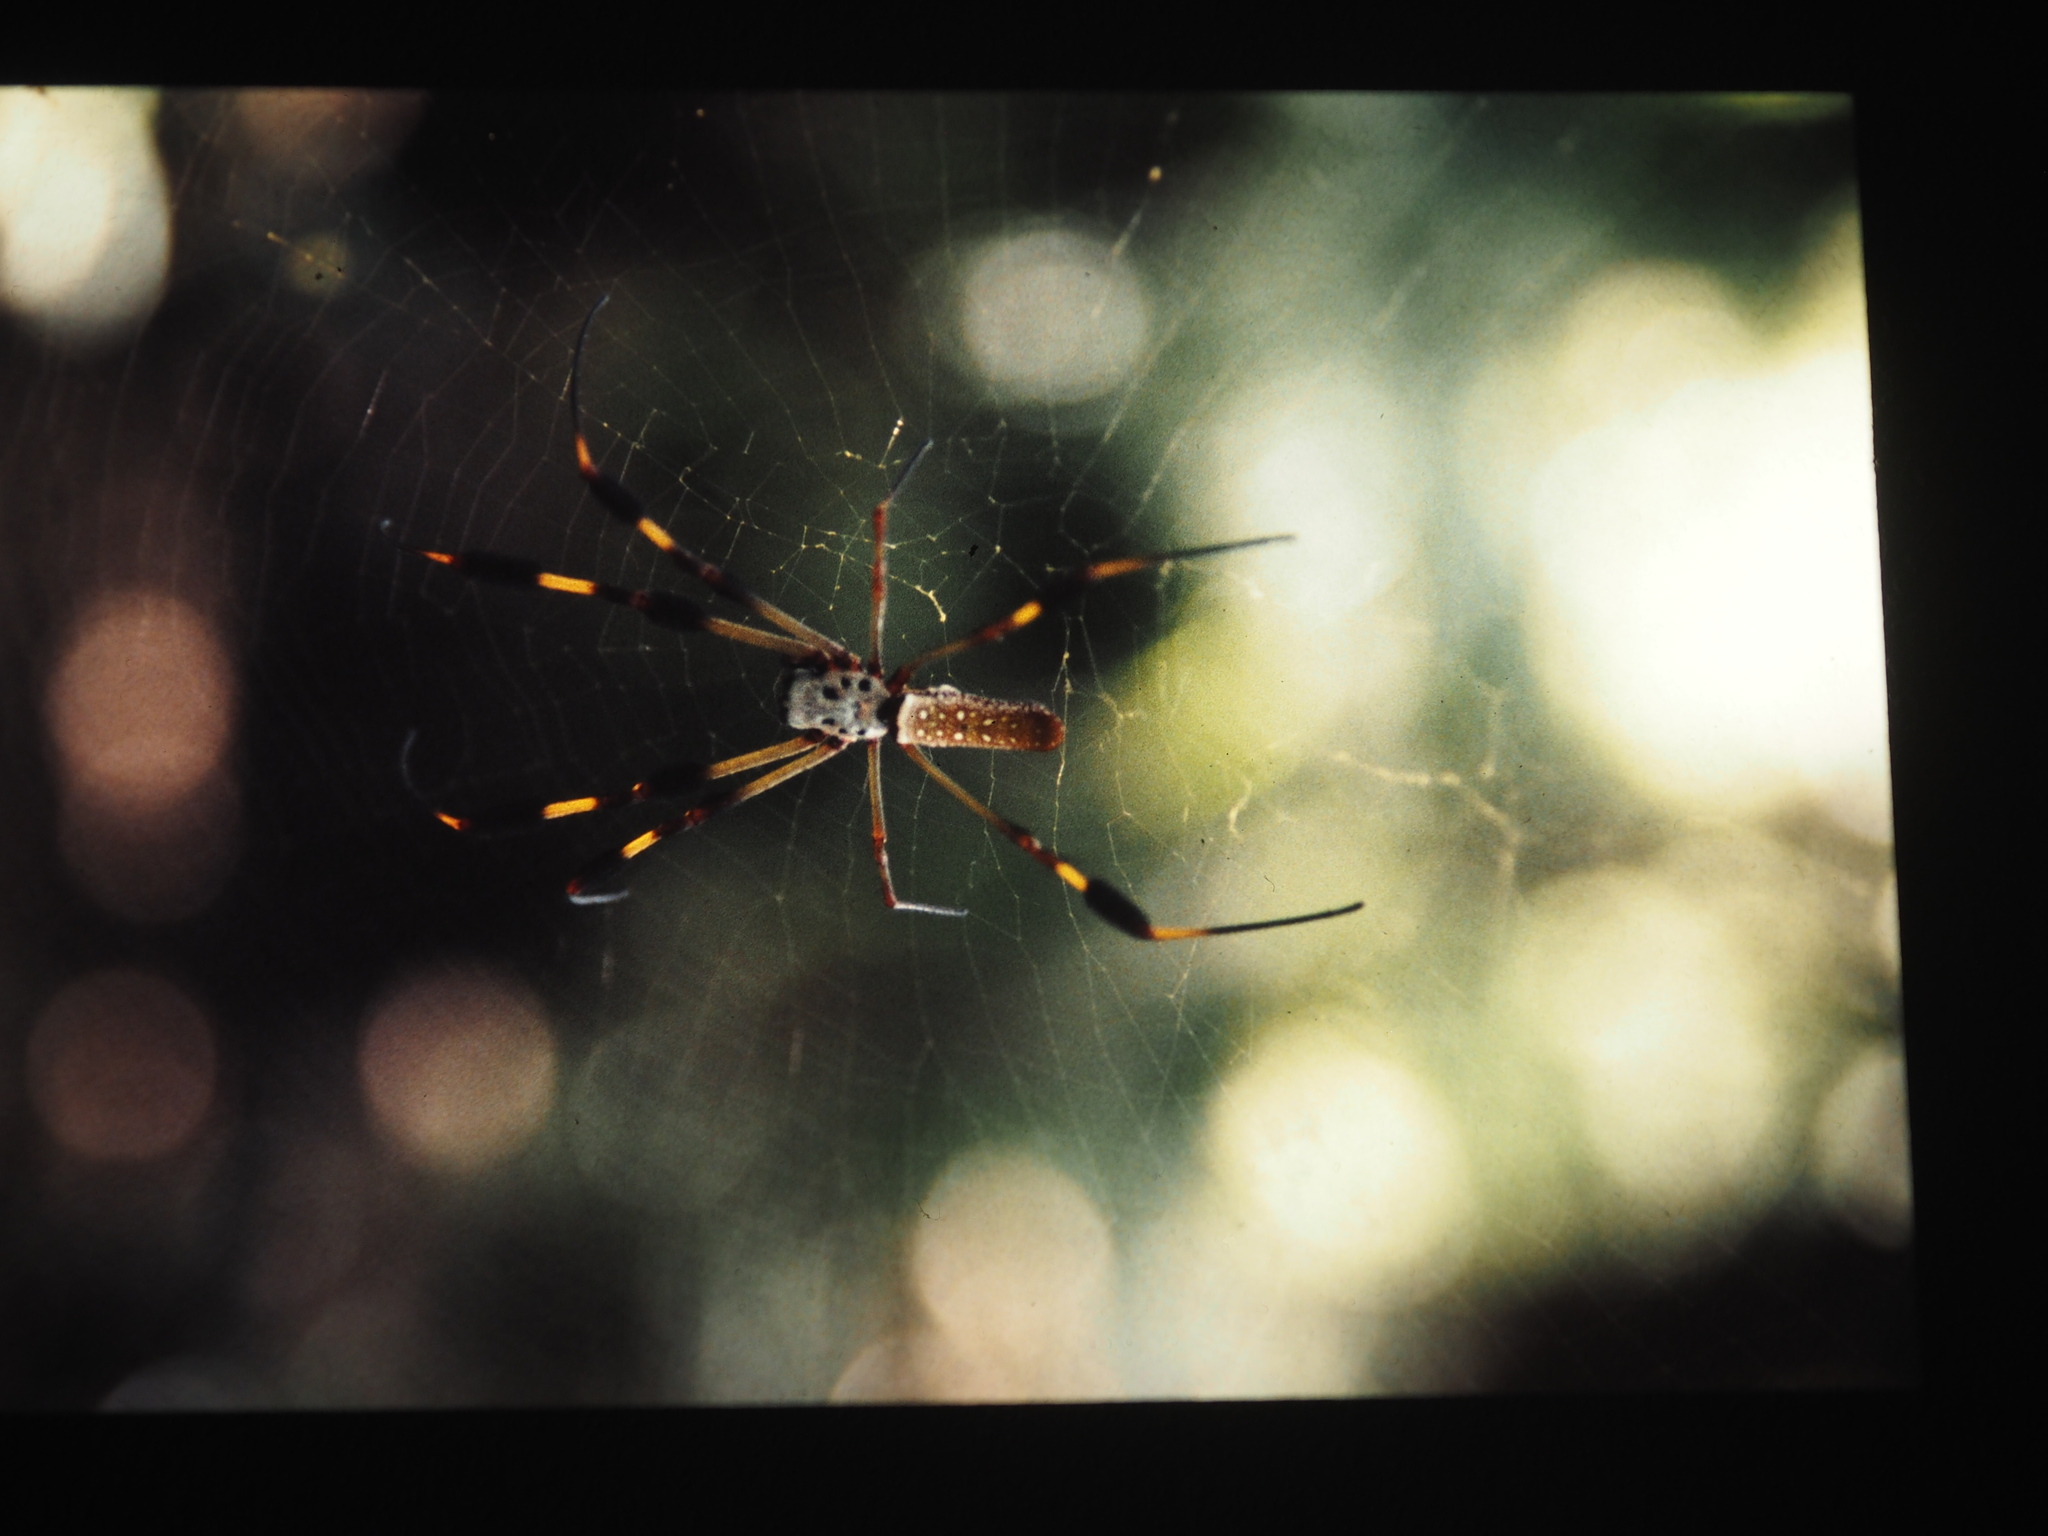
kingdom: Animalia
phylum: Arthropoda
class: Arachnida
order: Araneae
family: Araneidae
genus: Trichonephila
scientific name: Trichonephila clavipes
